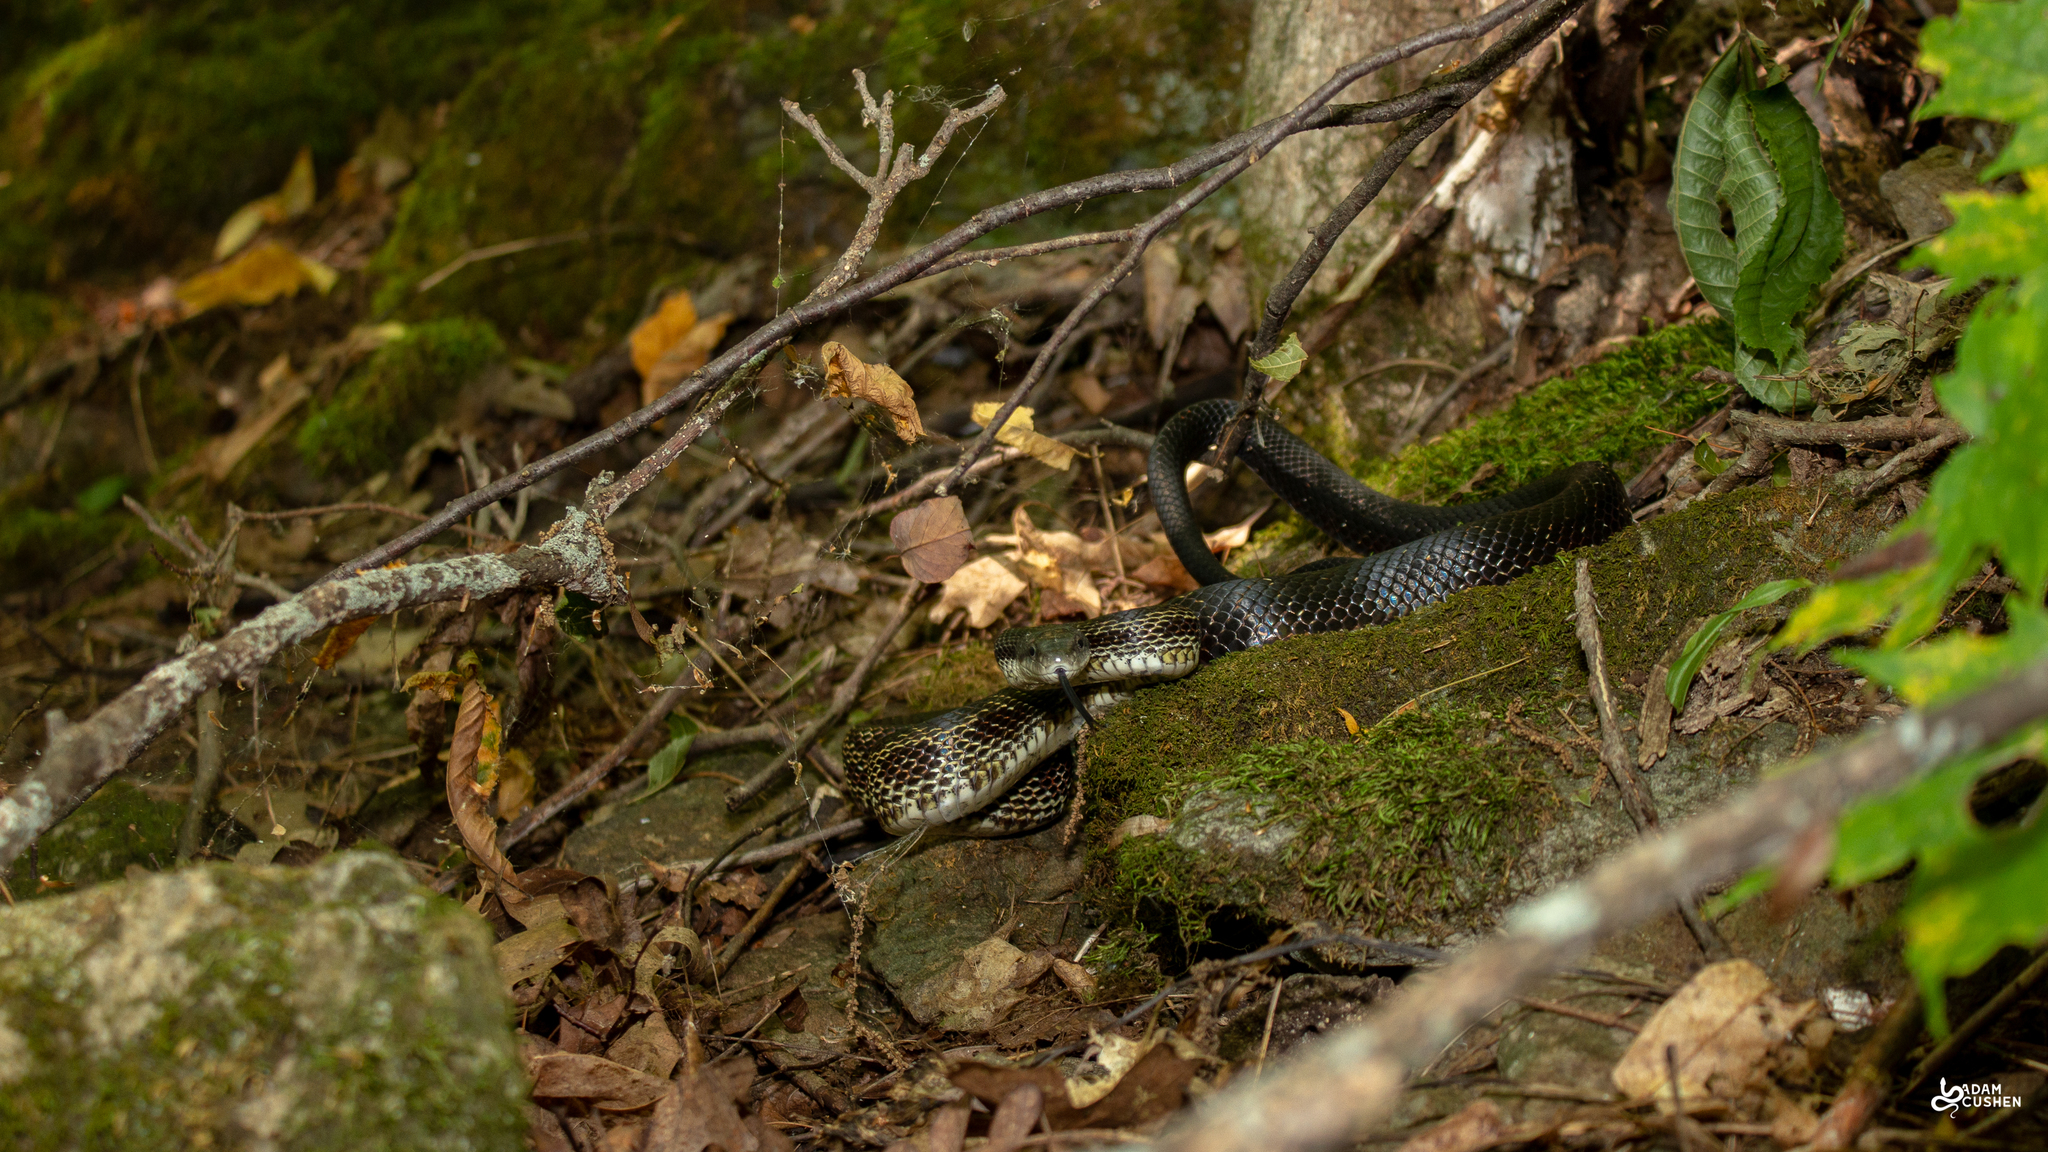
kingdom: Animalia
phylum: Chordata
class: Squamata
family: Colubridae
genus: Pantherophis
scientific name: Pantherophis spiloides
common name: Gray rat snake
